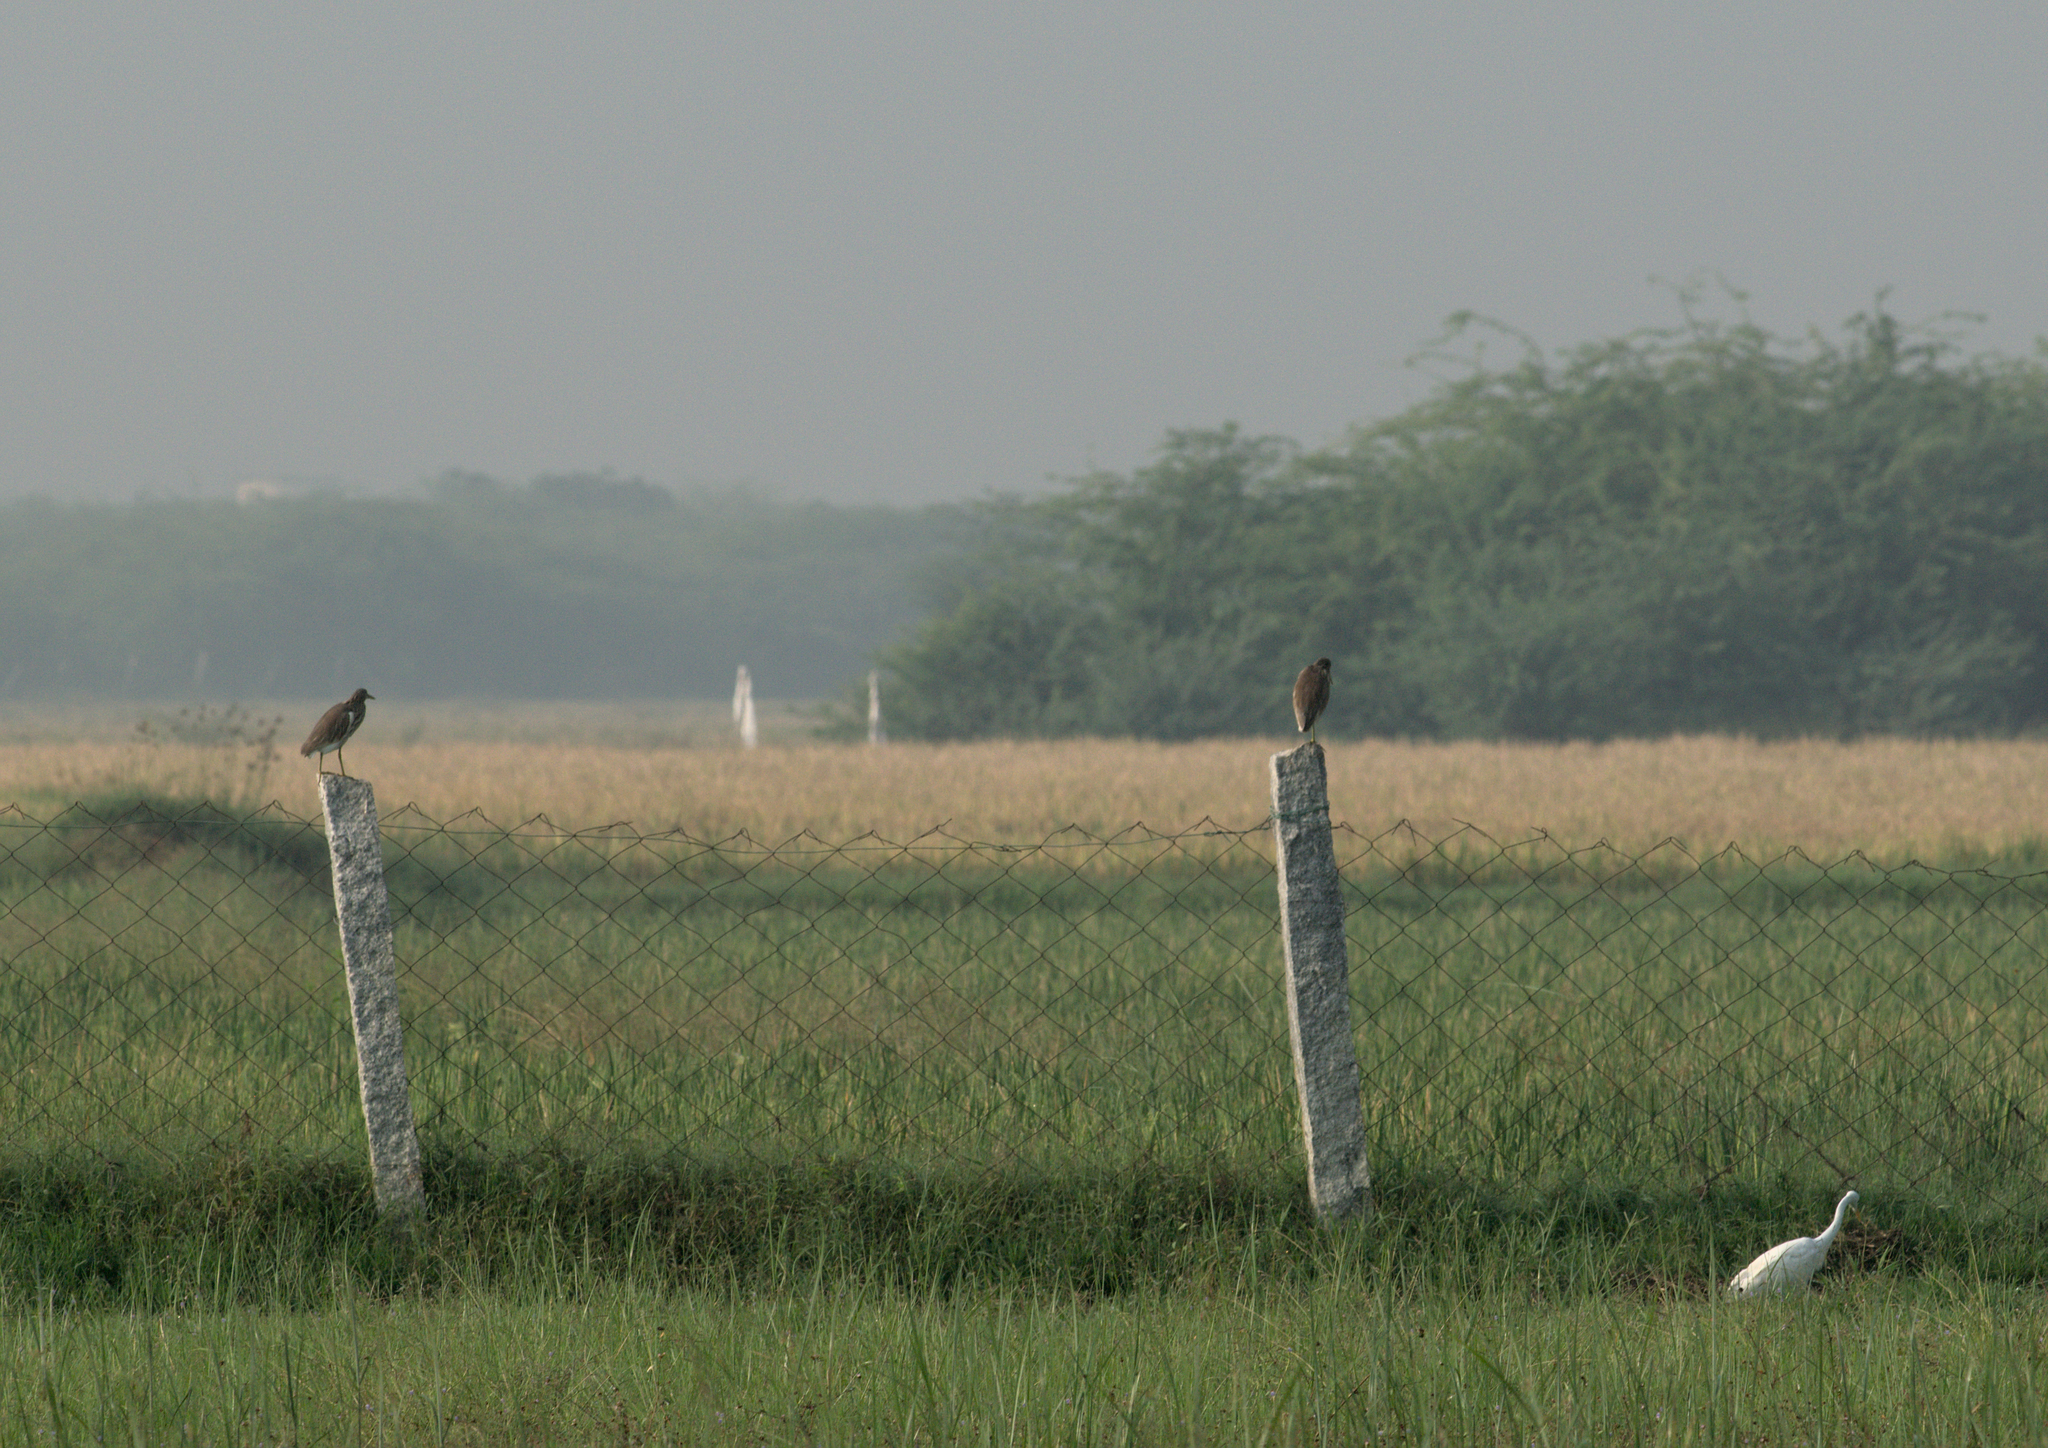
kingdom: Animalia
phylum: Chordata
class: Aves
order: Pelecaniformes
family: Ardeidae
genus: Bubulcus
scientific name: Bubulcus coromandus
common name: Eastern cattle egret
